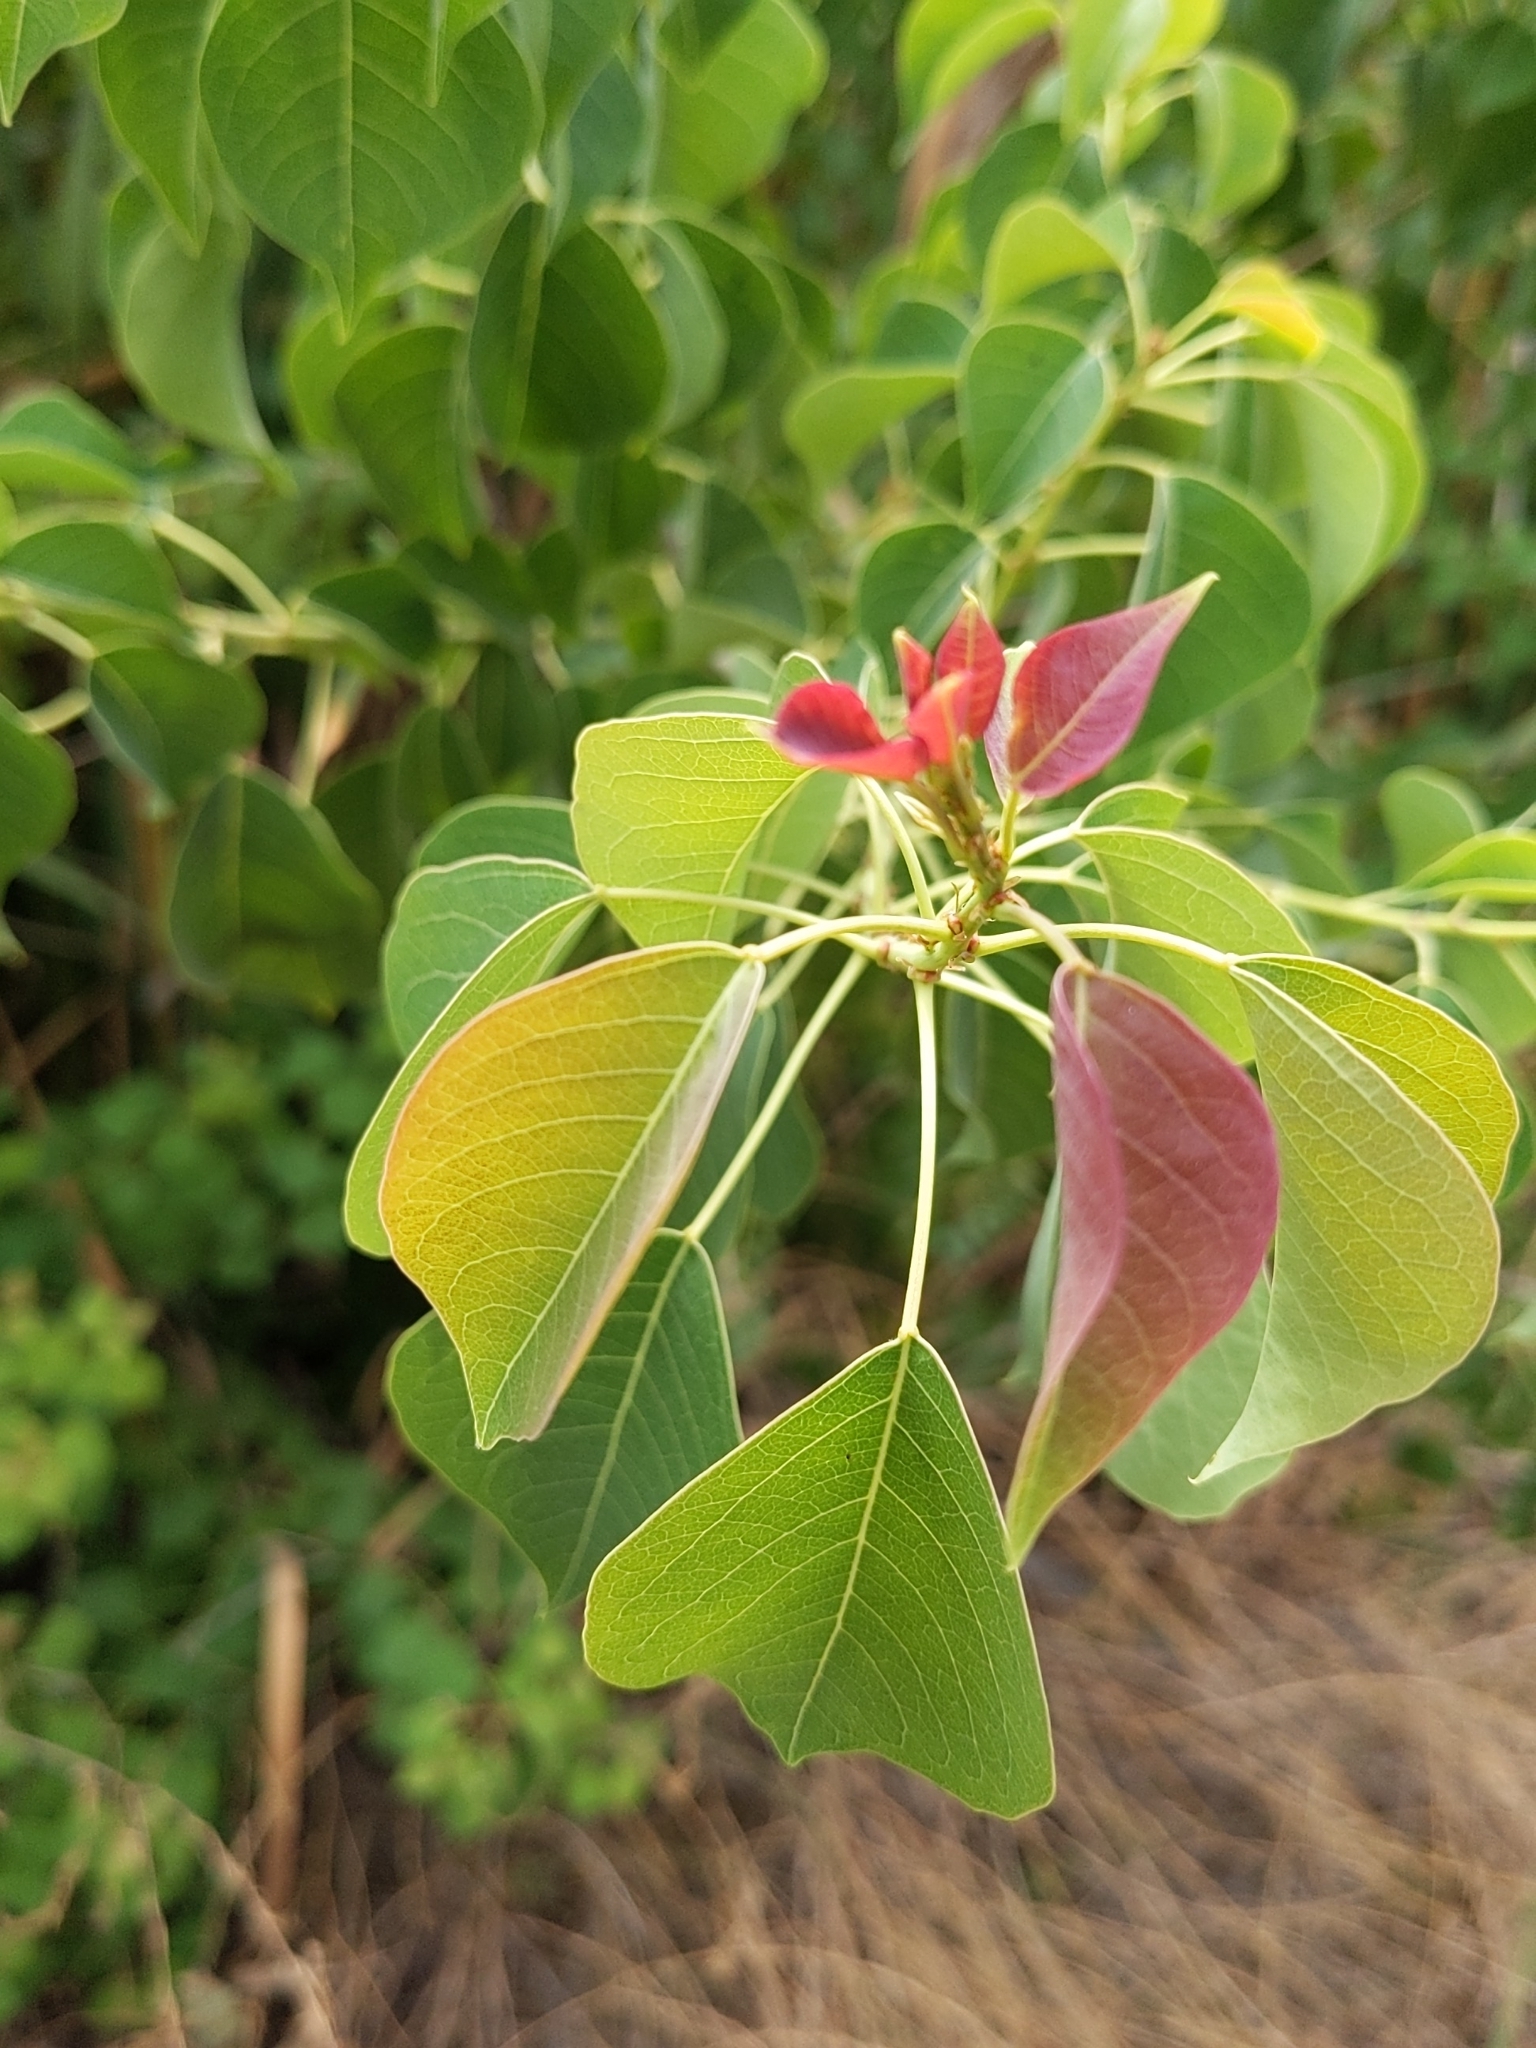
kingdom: Plantae
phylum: Tracheophyta
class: Magnoliopsida
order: Malpighiales
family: Euphorbiaceae
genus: Triadica
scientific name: Triadica sebifera
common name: Chinese tallow
